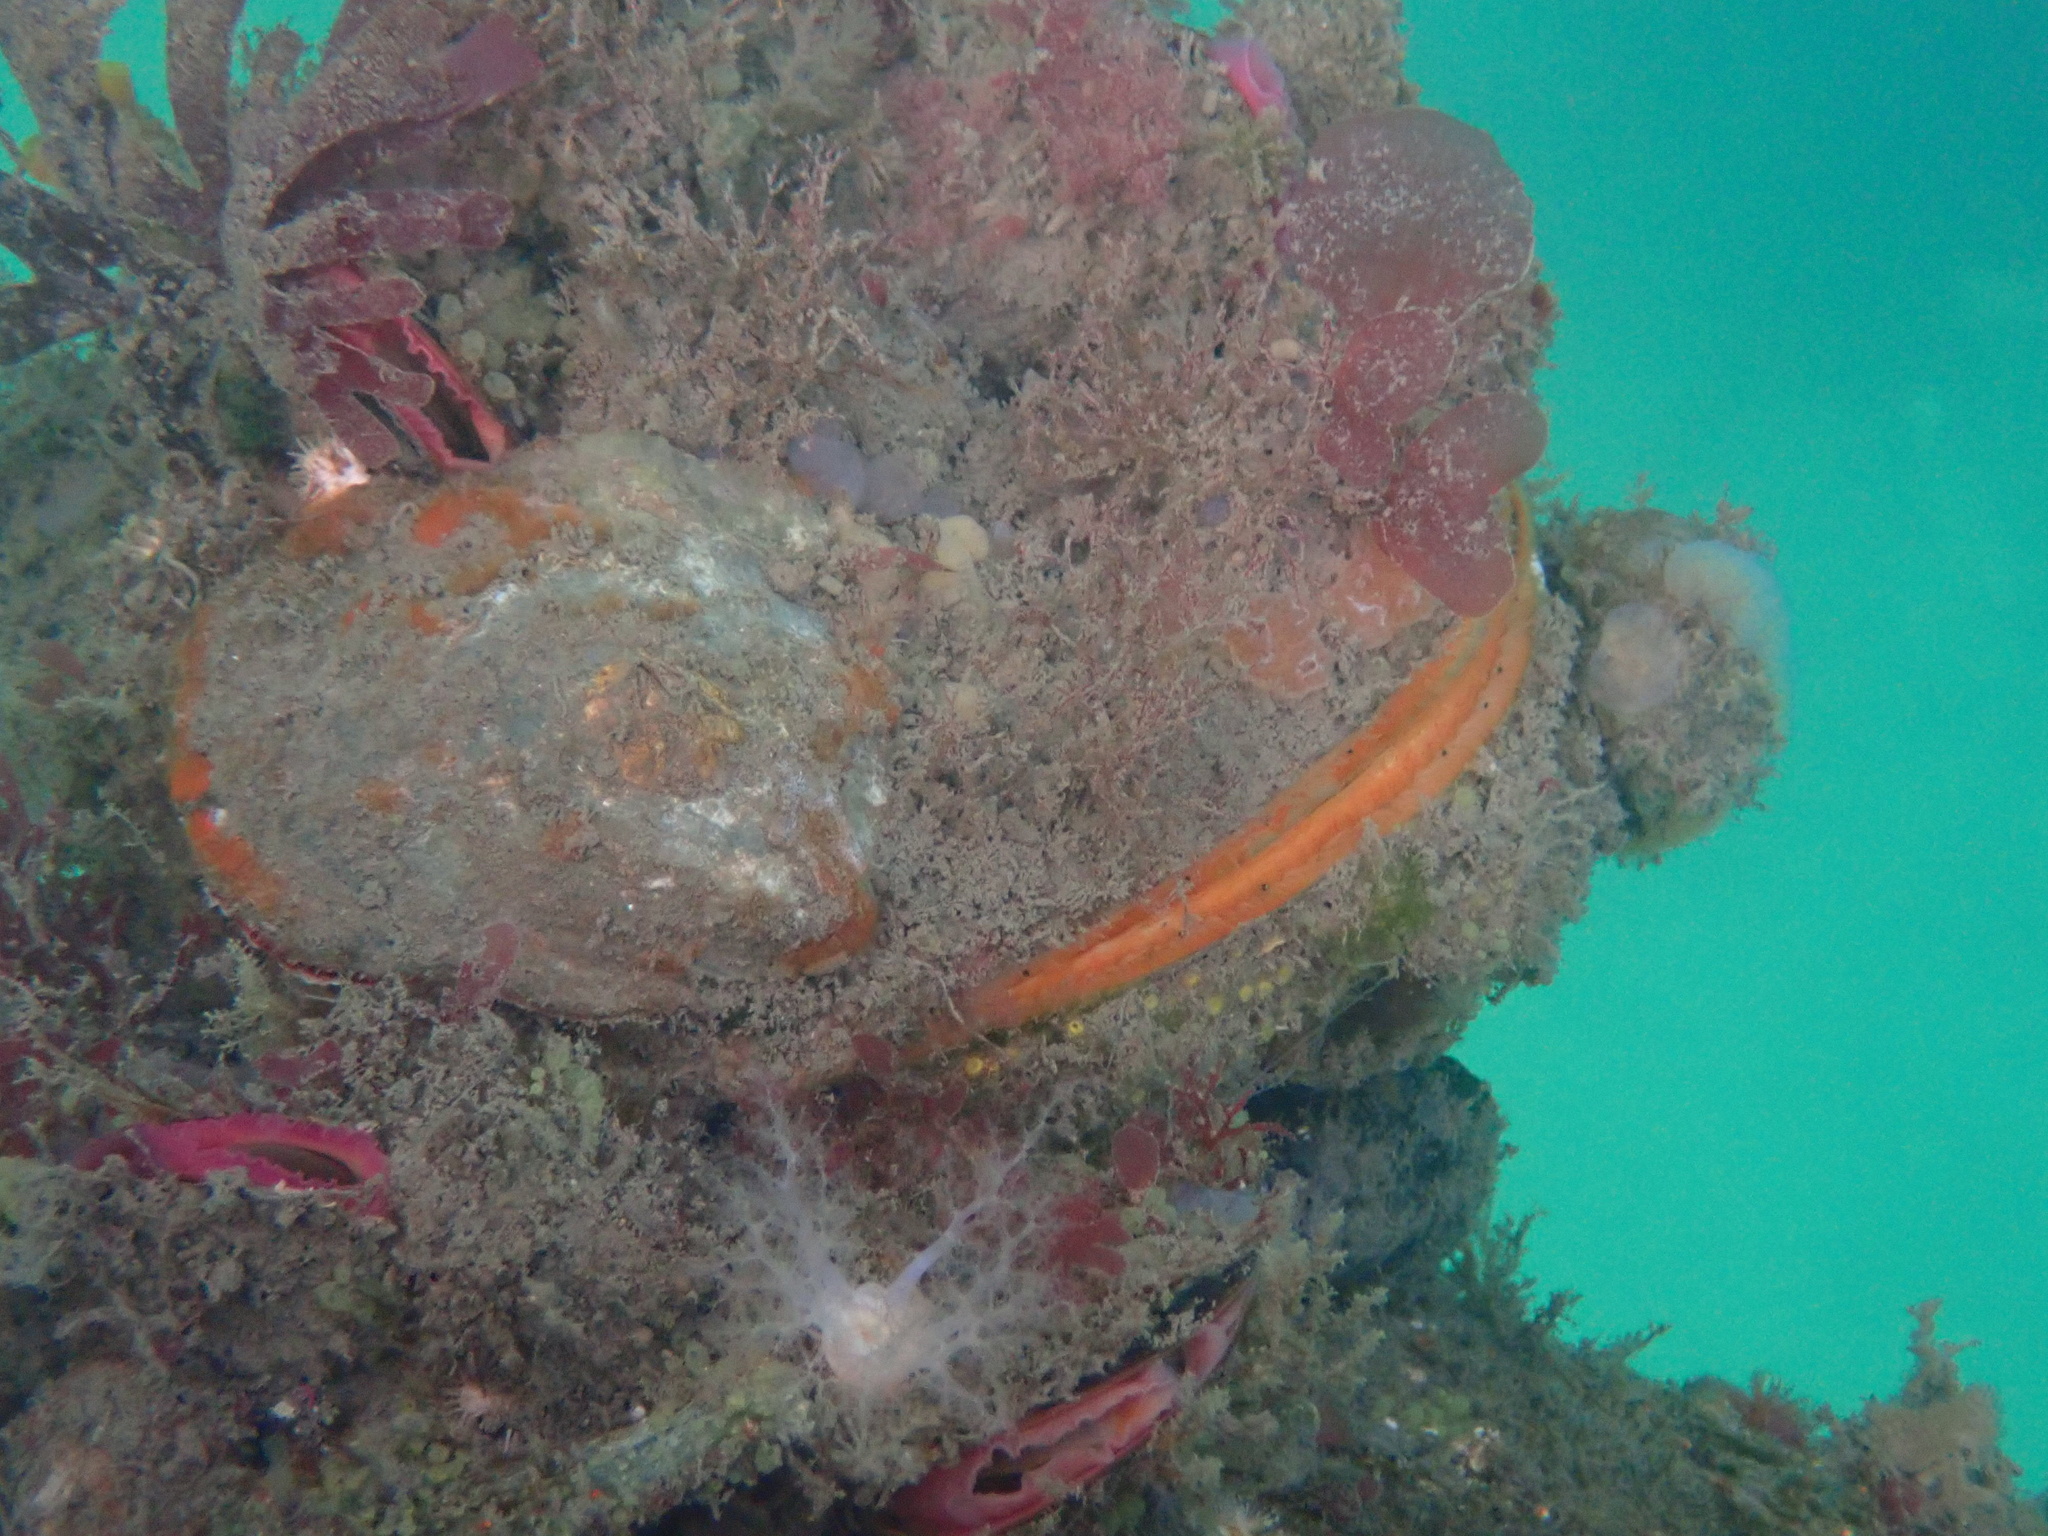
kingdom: Animalia
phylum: Mollusca
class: Bivalvia
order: Pectinida
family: Pectinidae
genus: Crassadoma
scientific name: Crassadoma gigantea
